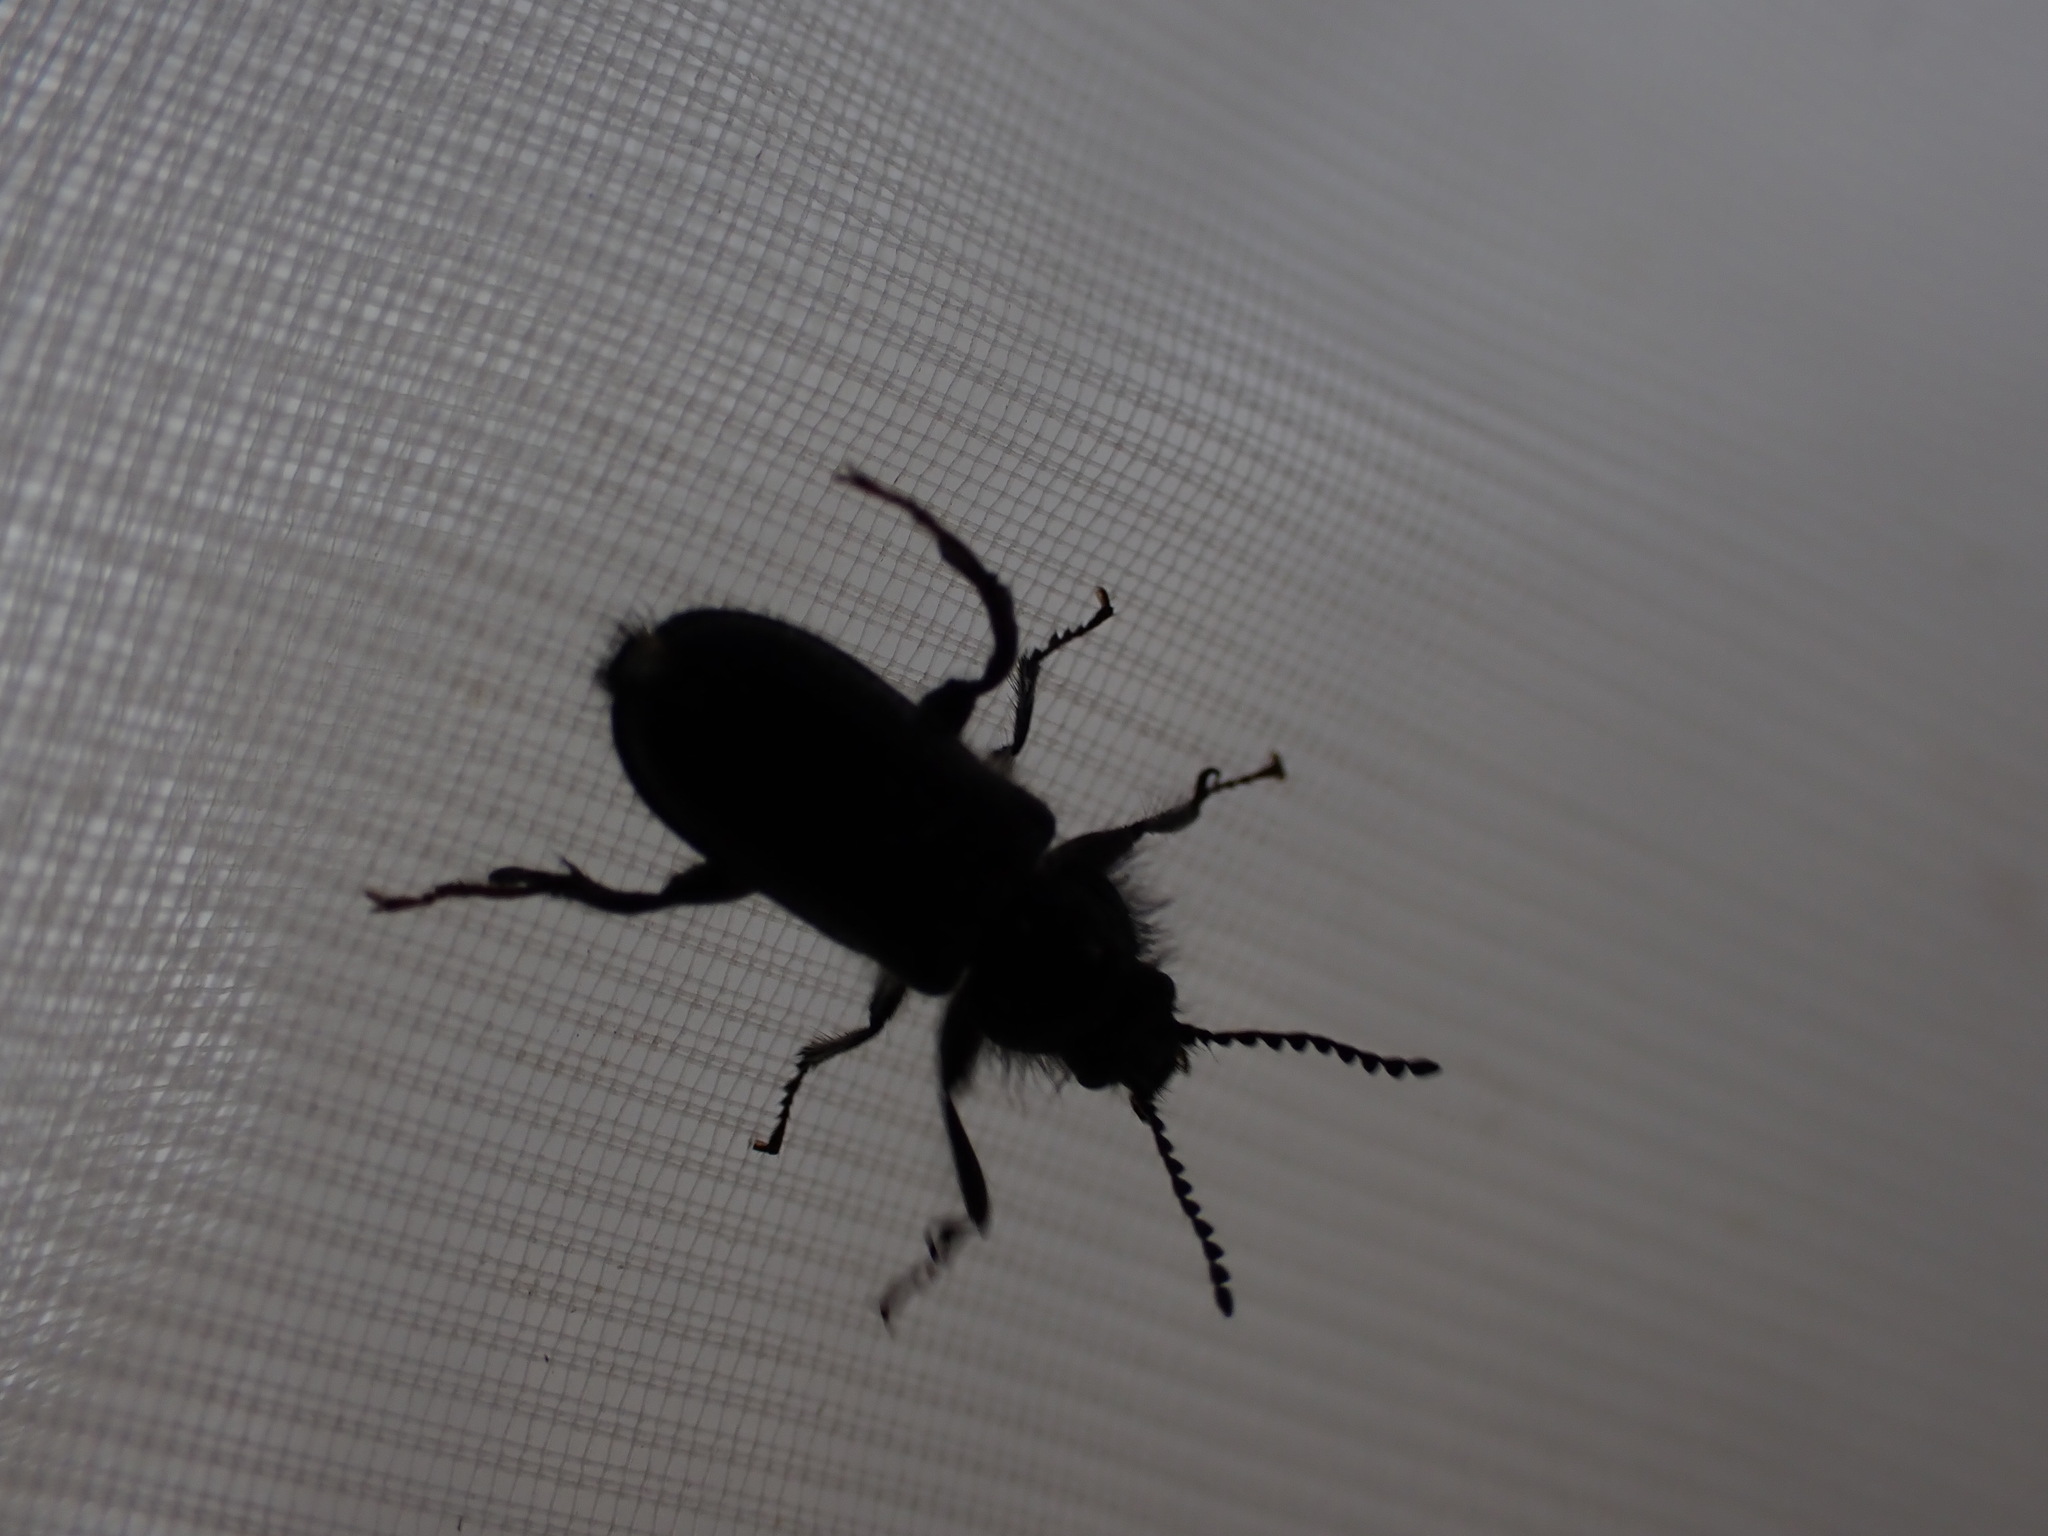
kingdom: Animalia
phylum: Arthropoda
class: Insecta
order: Coleoptera
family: Melyridae
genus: Enicopus
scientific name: Enicopus ater
